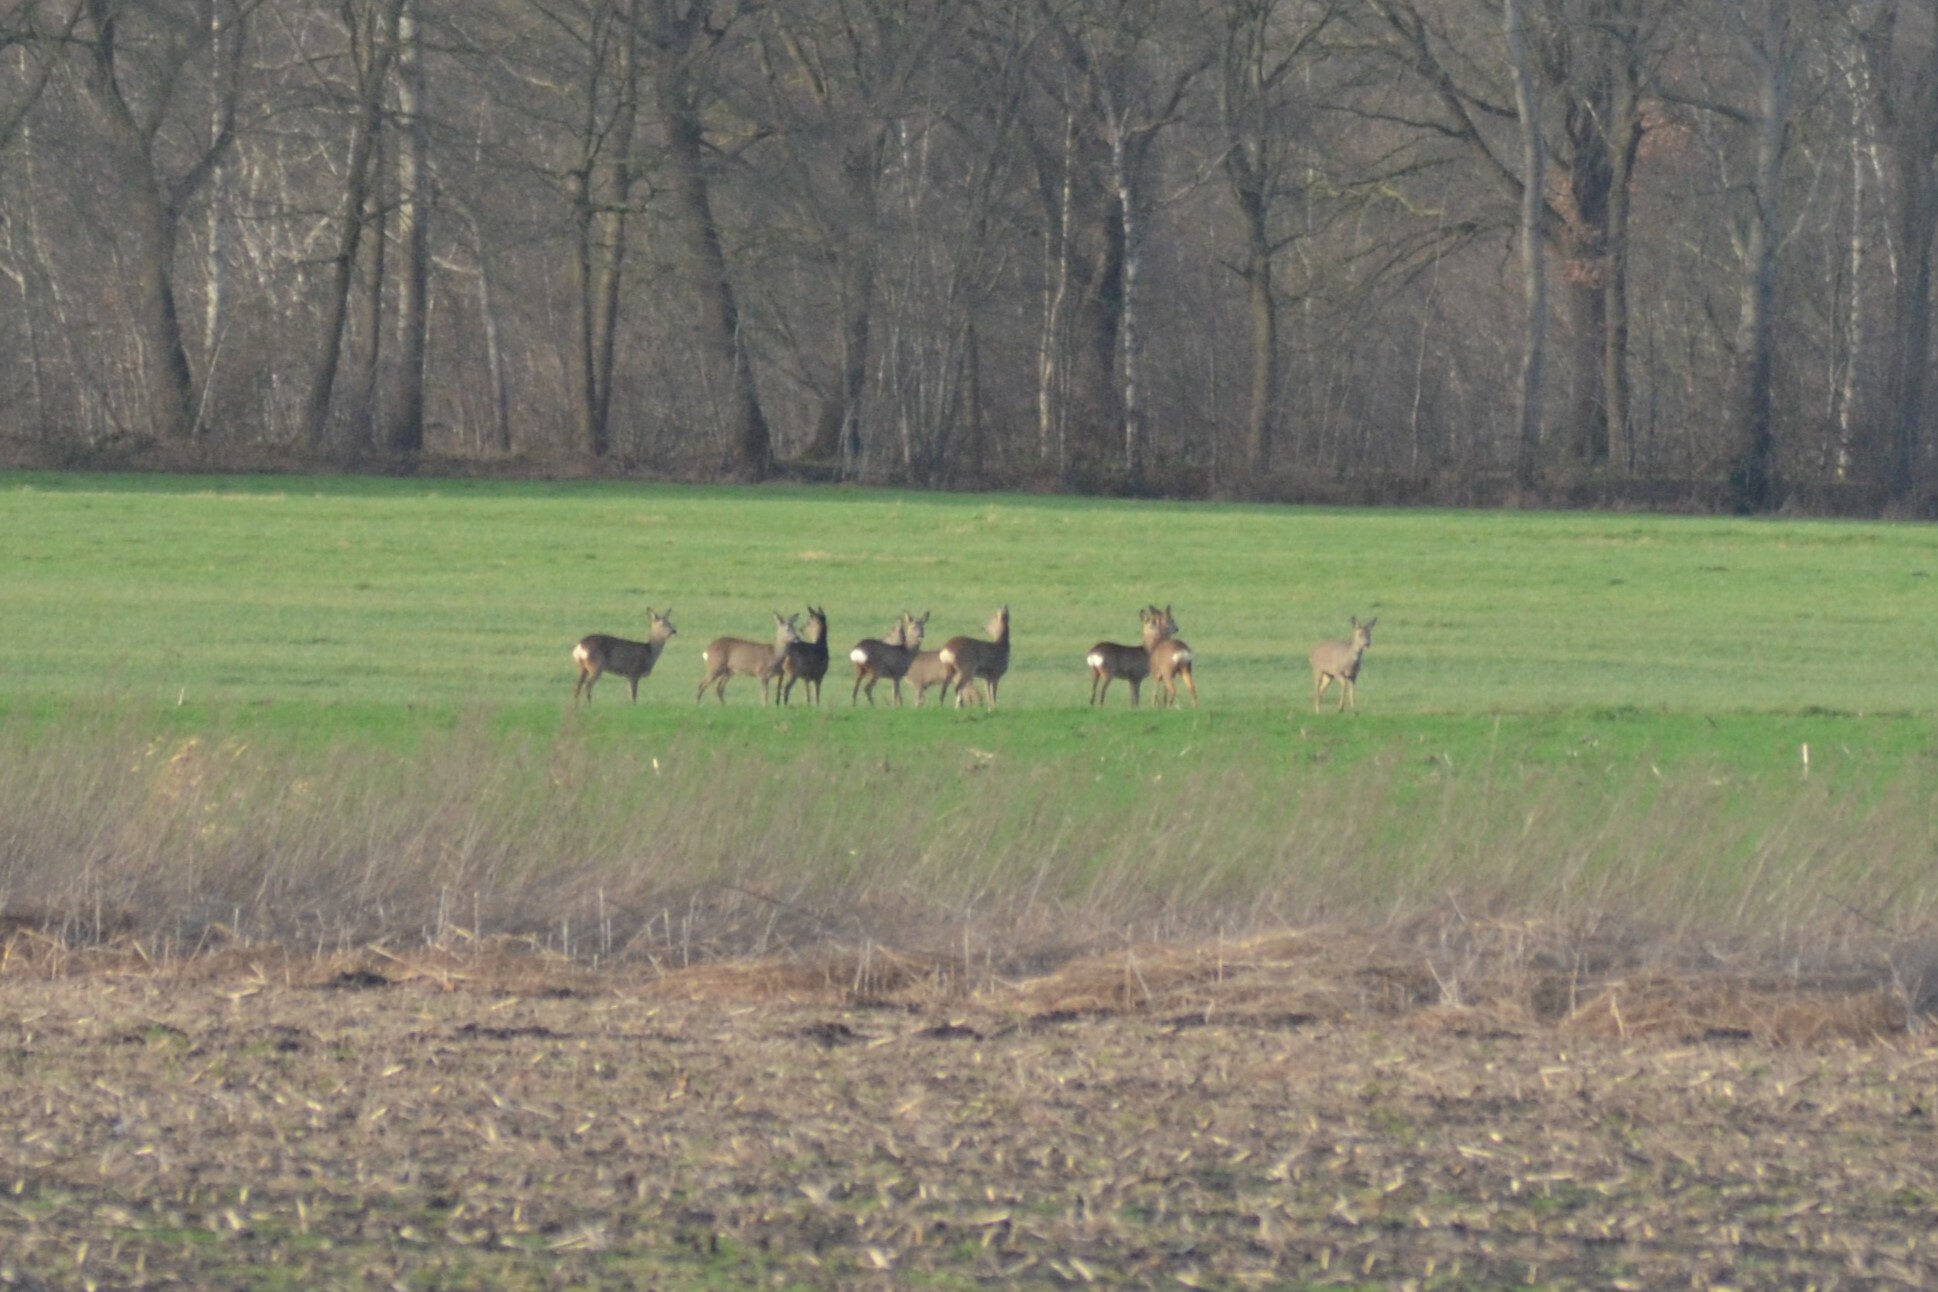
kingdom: Animalia
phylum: Chordata
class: Mammalia
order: Artiodactyla
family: Cervidae
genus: Capreolus
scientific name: Capreolus capreolus
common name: Western roe deer
